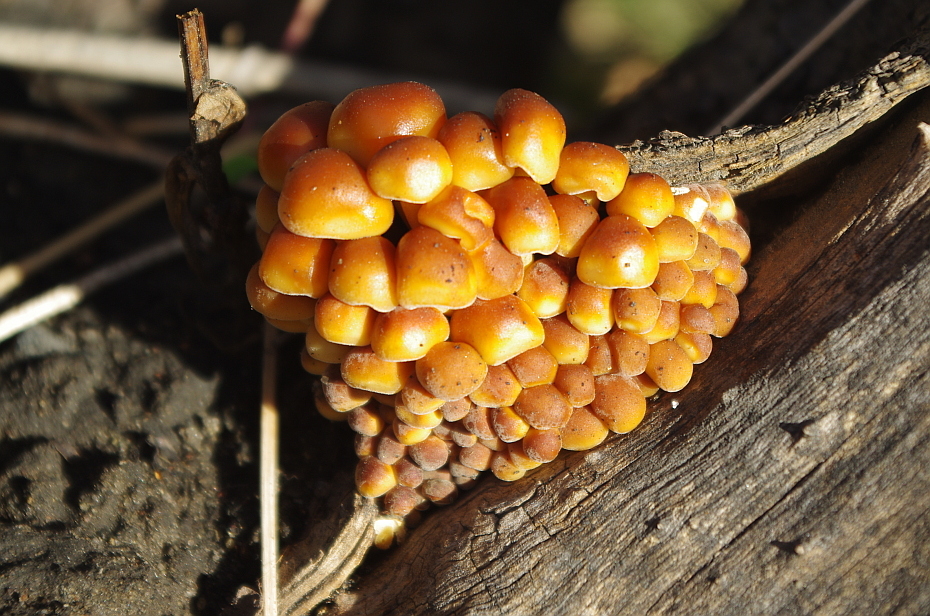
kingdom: Fungi
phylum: Basidiomycota
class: Agaricomycetes
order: Agaricales
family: Physalacriaceae
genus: Flammulina
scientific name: Flammulina
